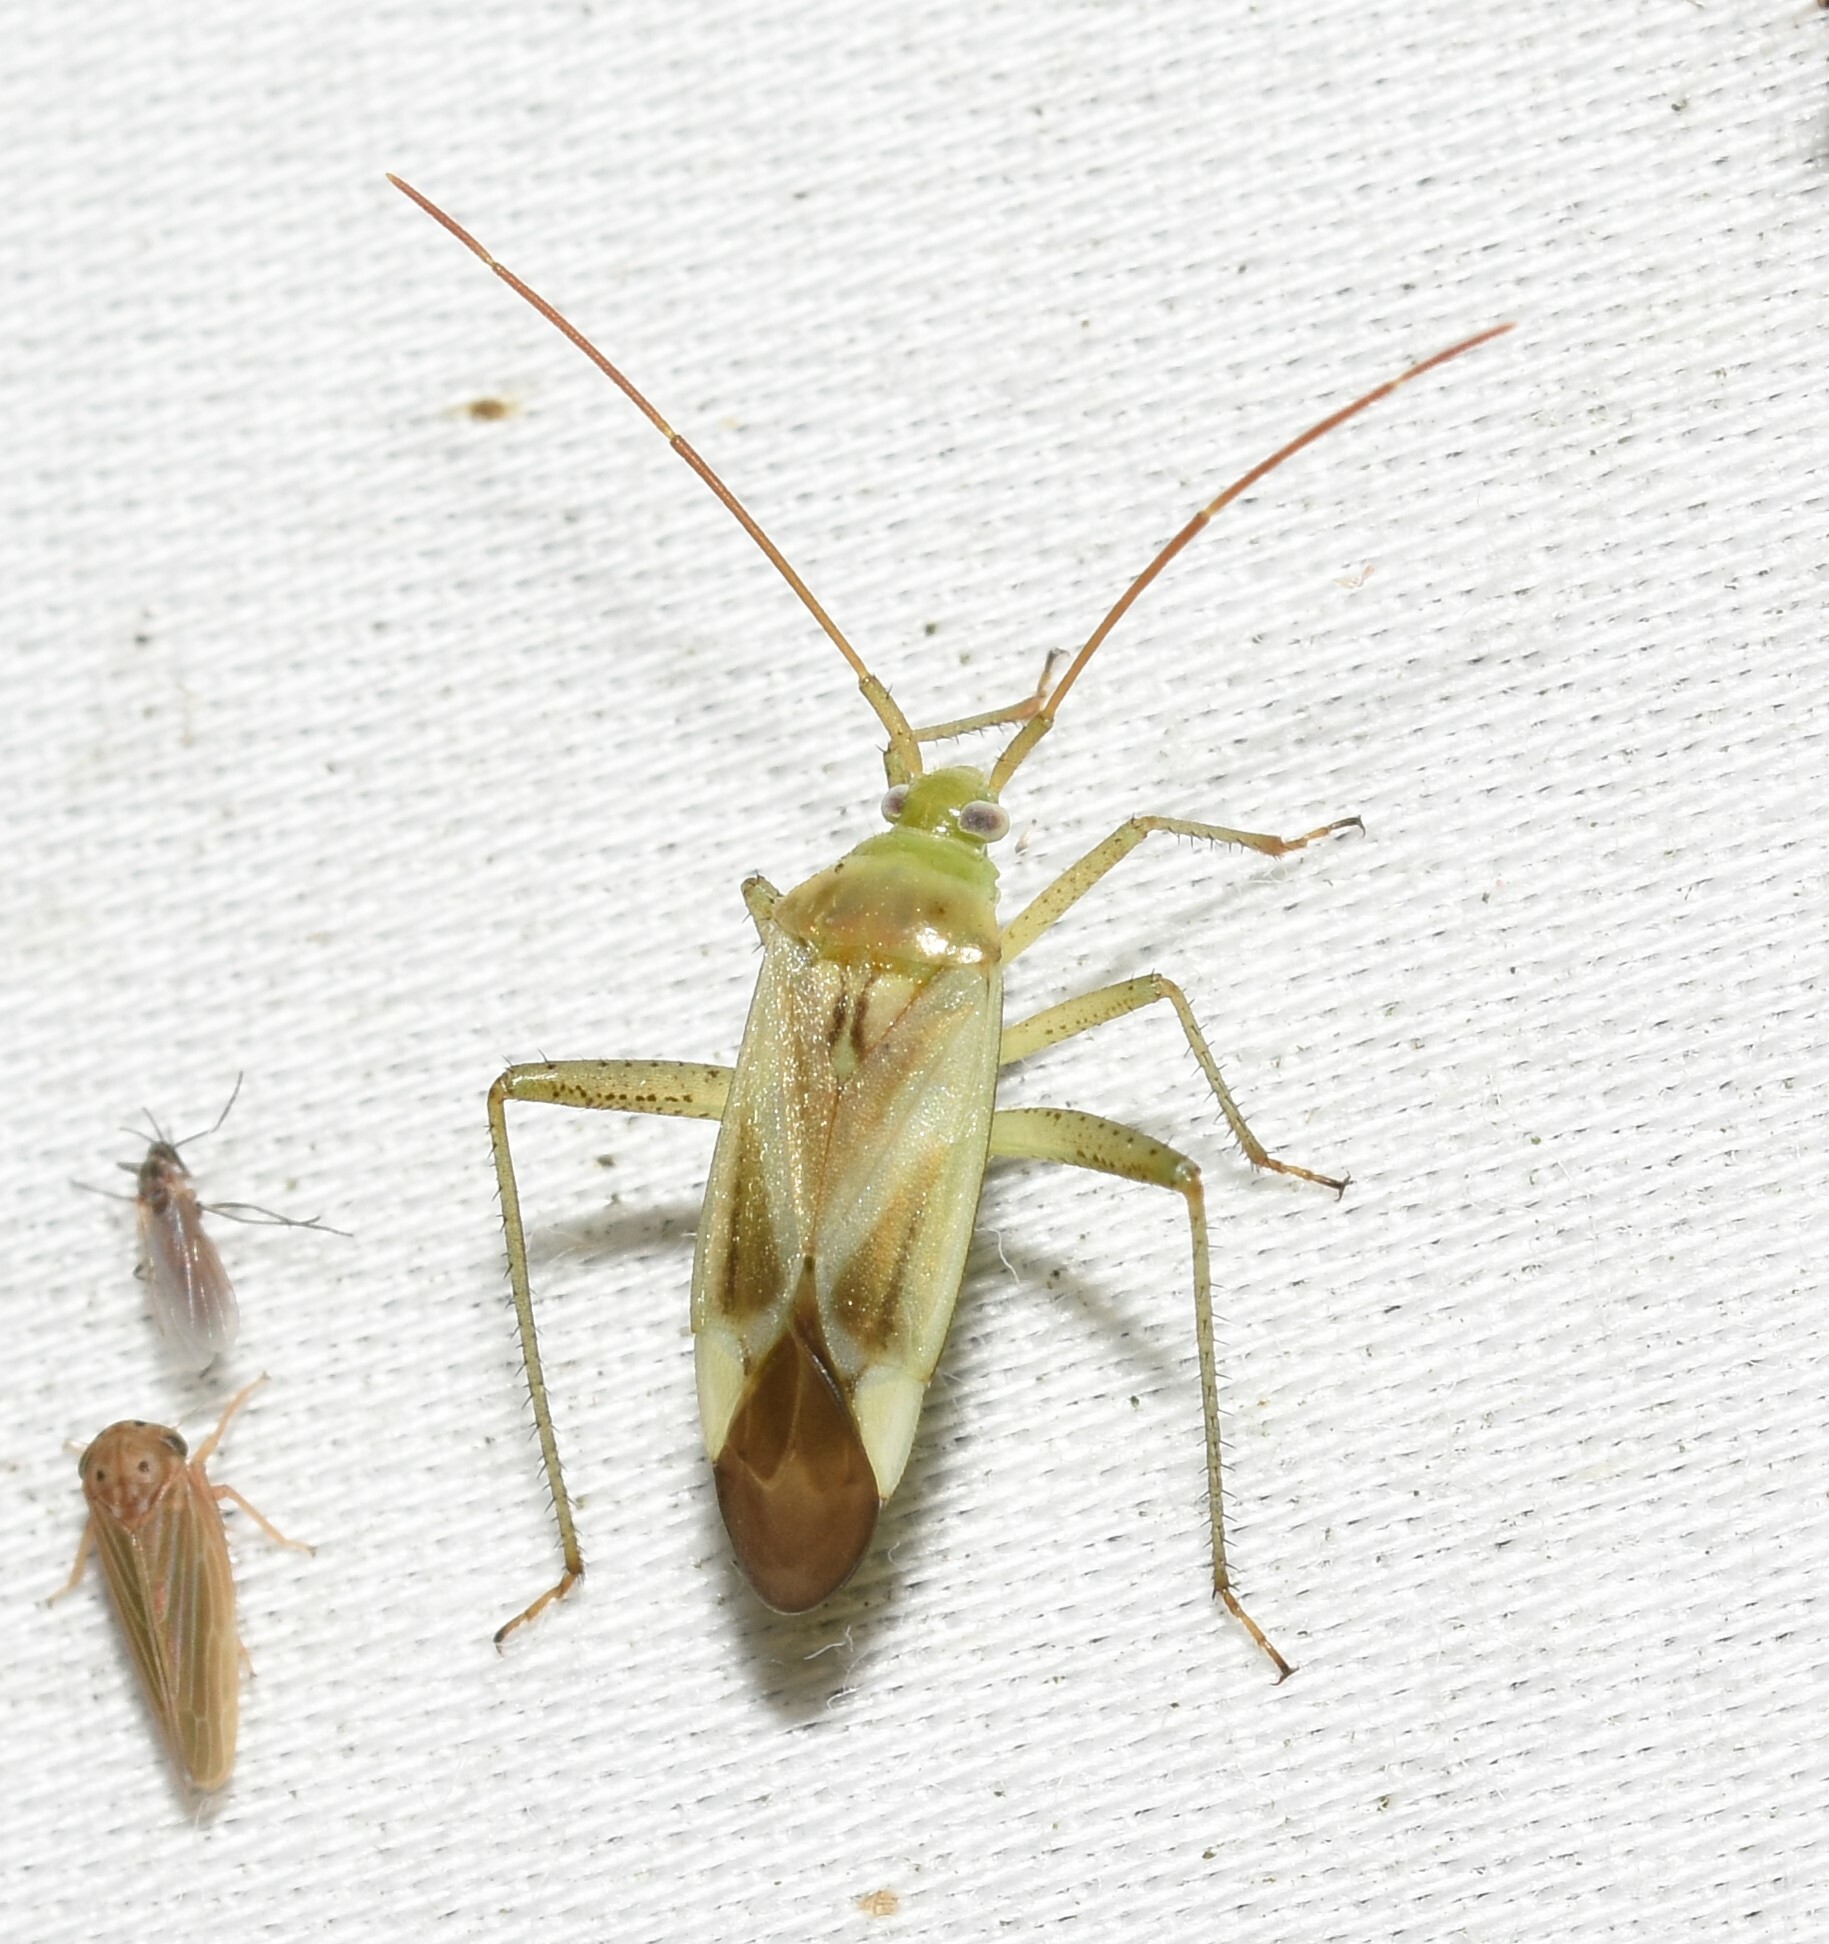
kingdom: Animalia
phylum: Arthropoda
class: Insecta
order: Hemiptera
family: Miridae
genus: Adelphocoris
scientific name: Adelphocoris lineolatus
